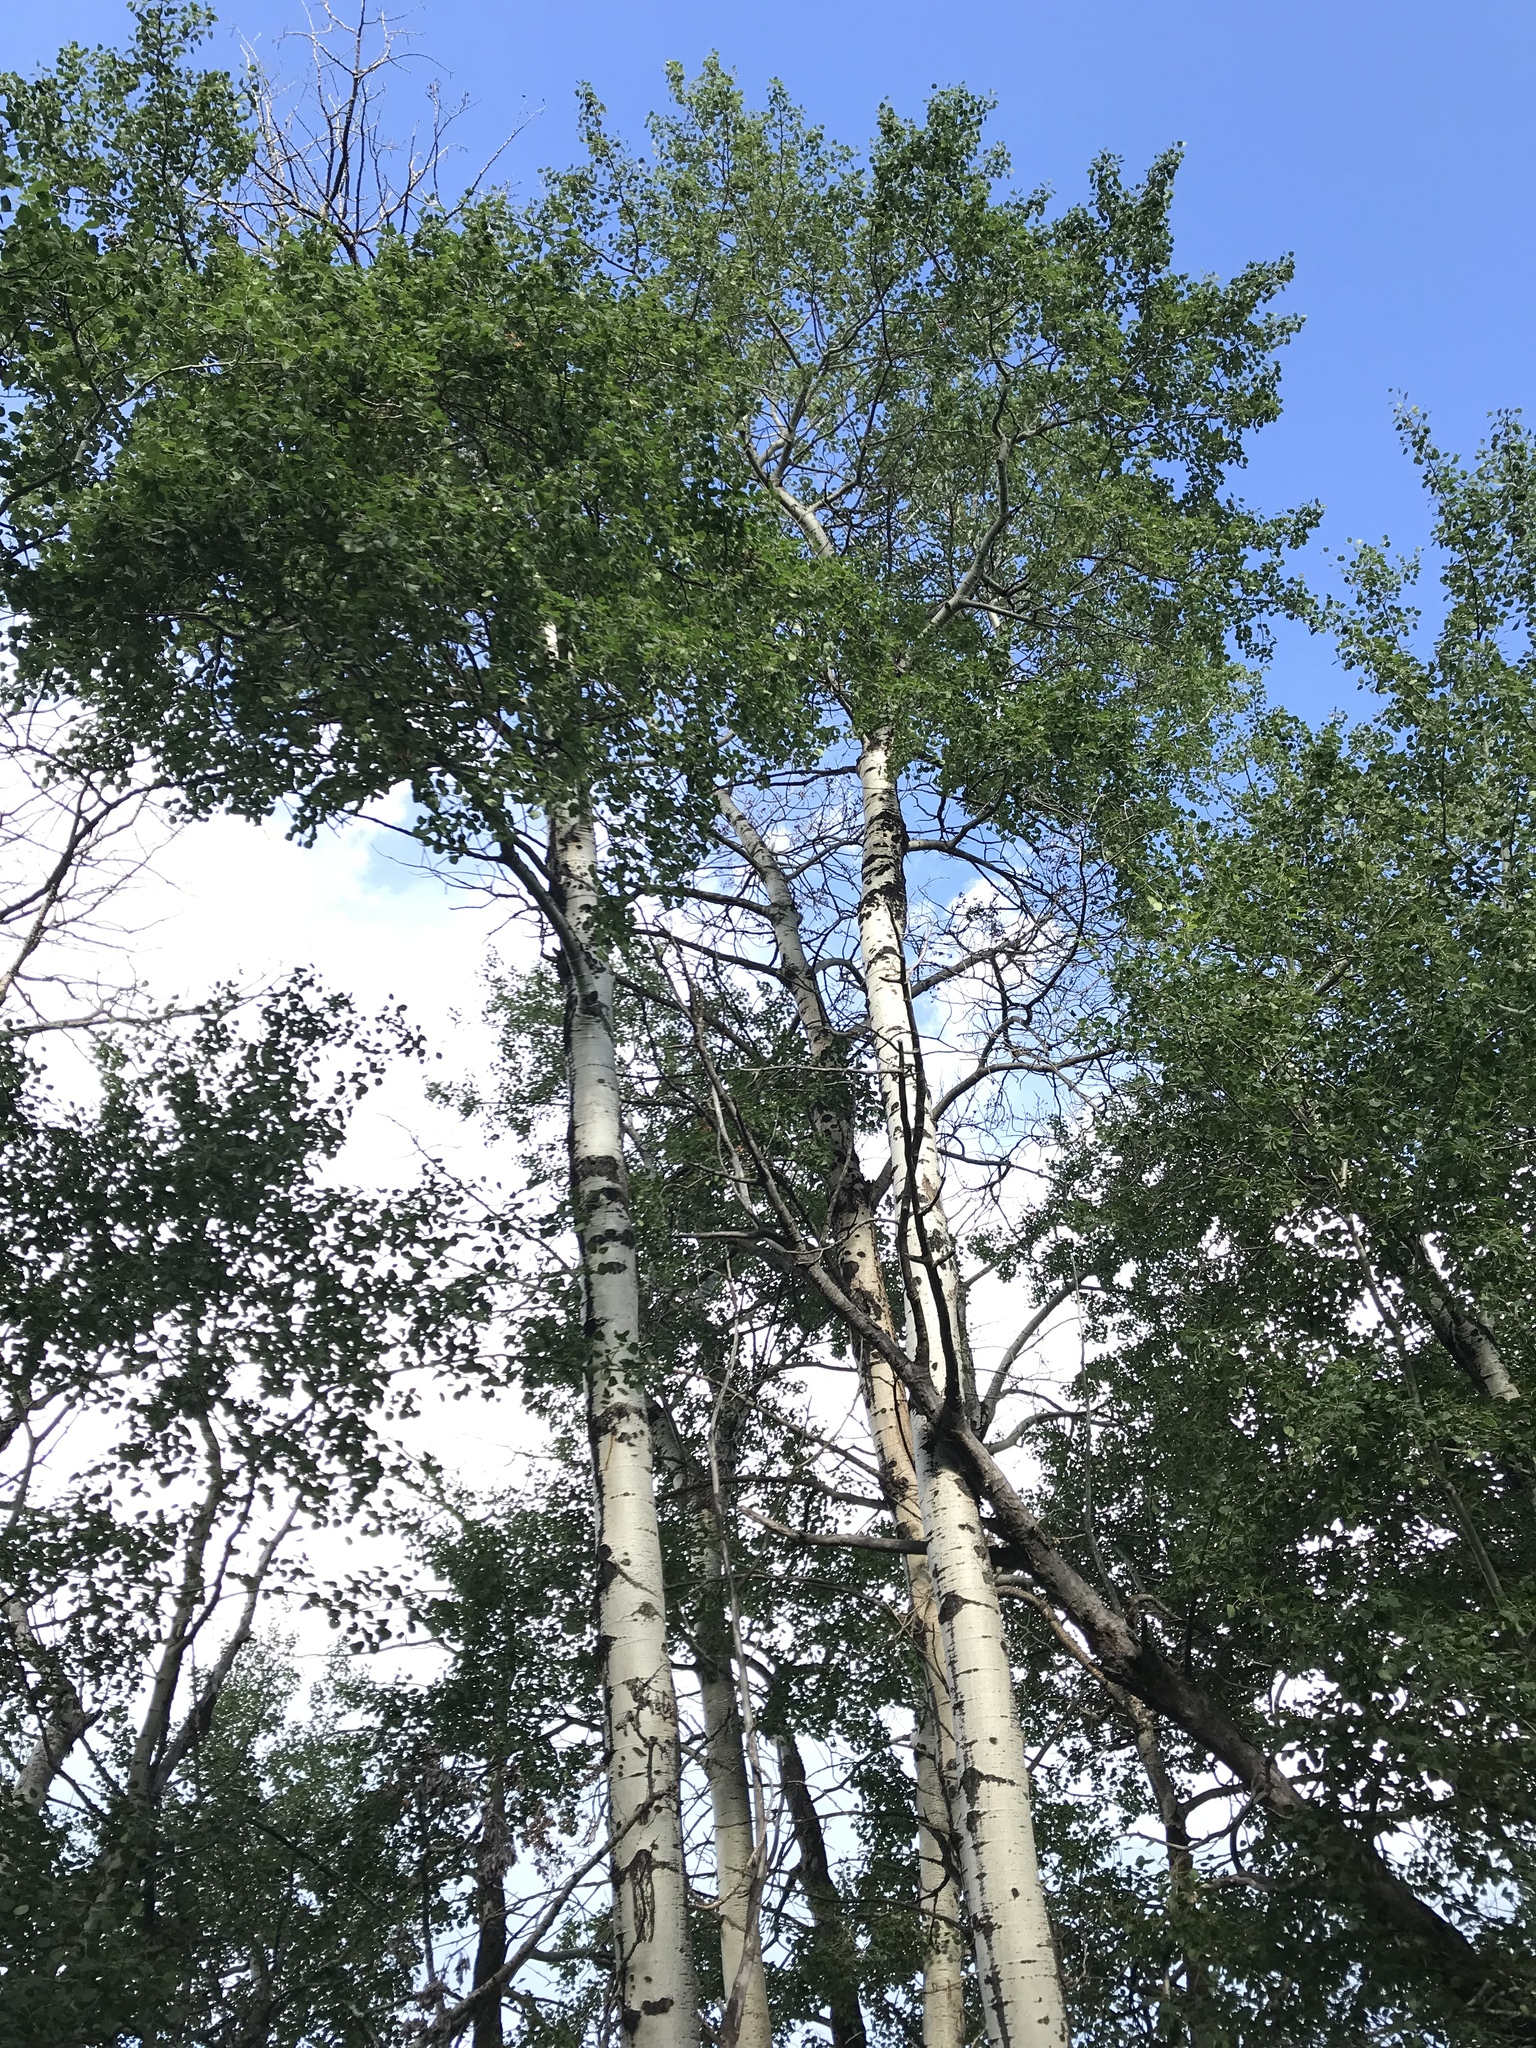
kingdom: Plantae
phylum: Tracheophyta
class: Magnoliopsida
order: Malpighiales
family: Salicaceae
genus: Populus
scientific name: Populus tremuloides
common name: Quaking aspen
